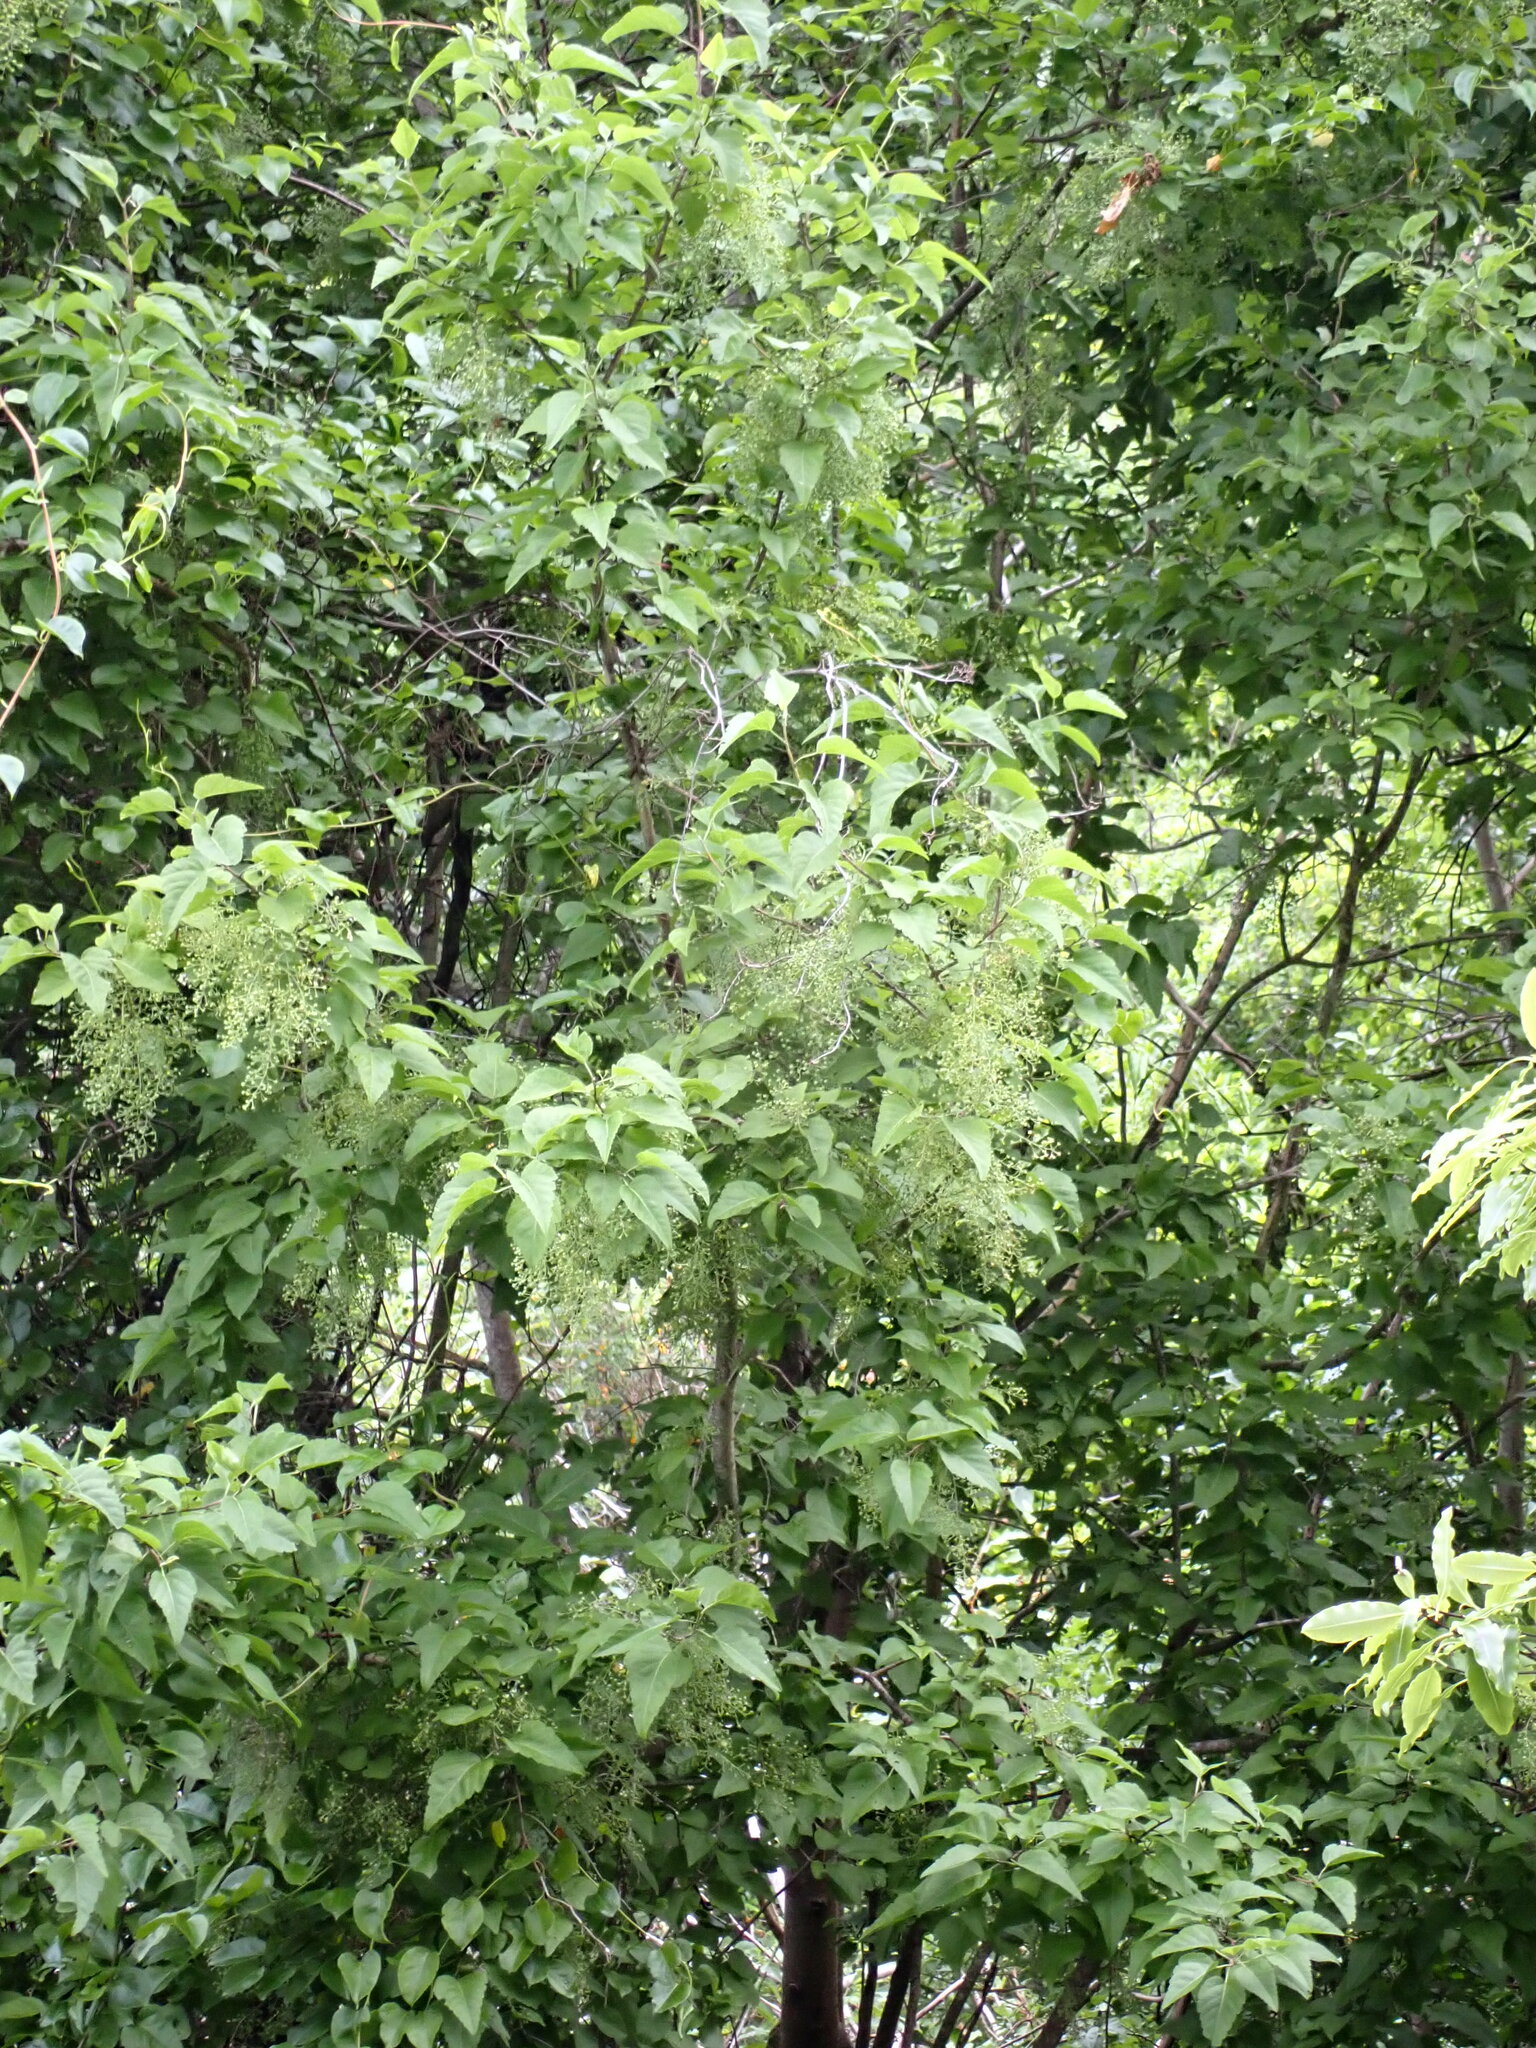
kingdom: Plantae
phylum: Tracheophyta
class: Magnoliopsida
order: Malvales
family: Malvaceae
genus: Plagianthus
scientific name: Plagianthus regius
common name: Manatu
